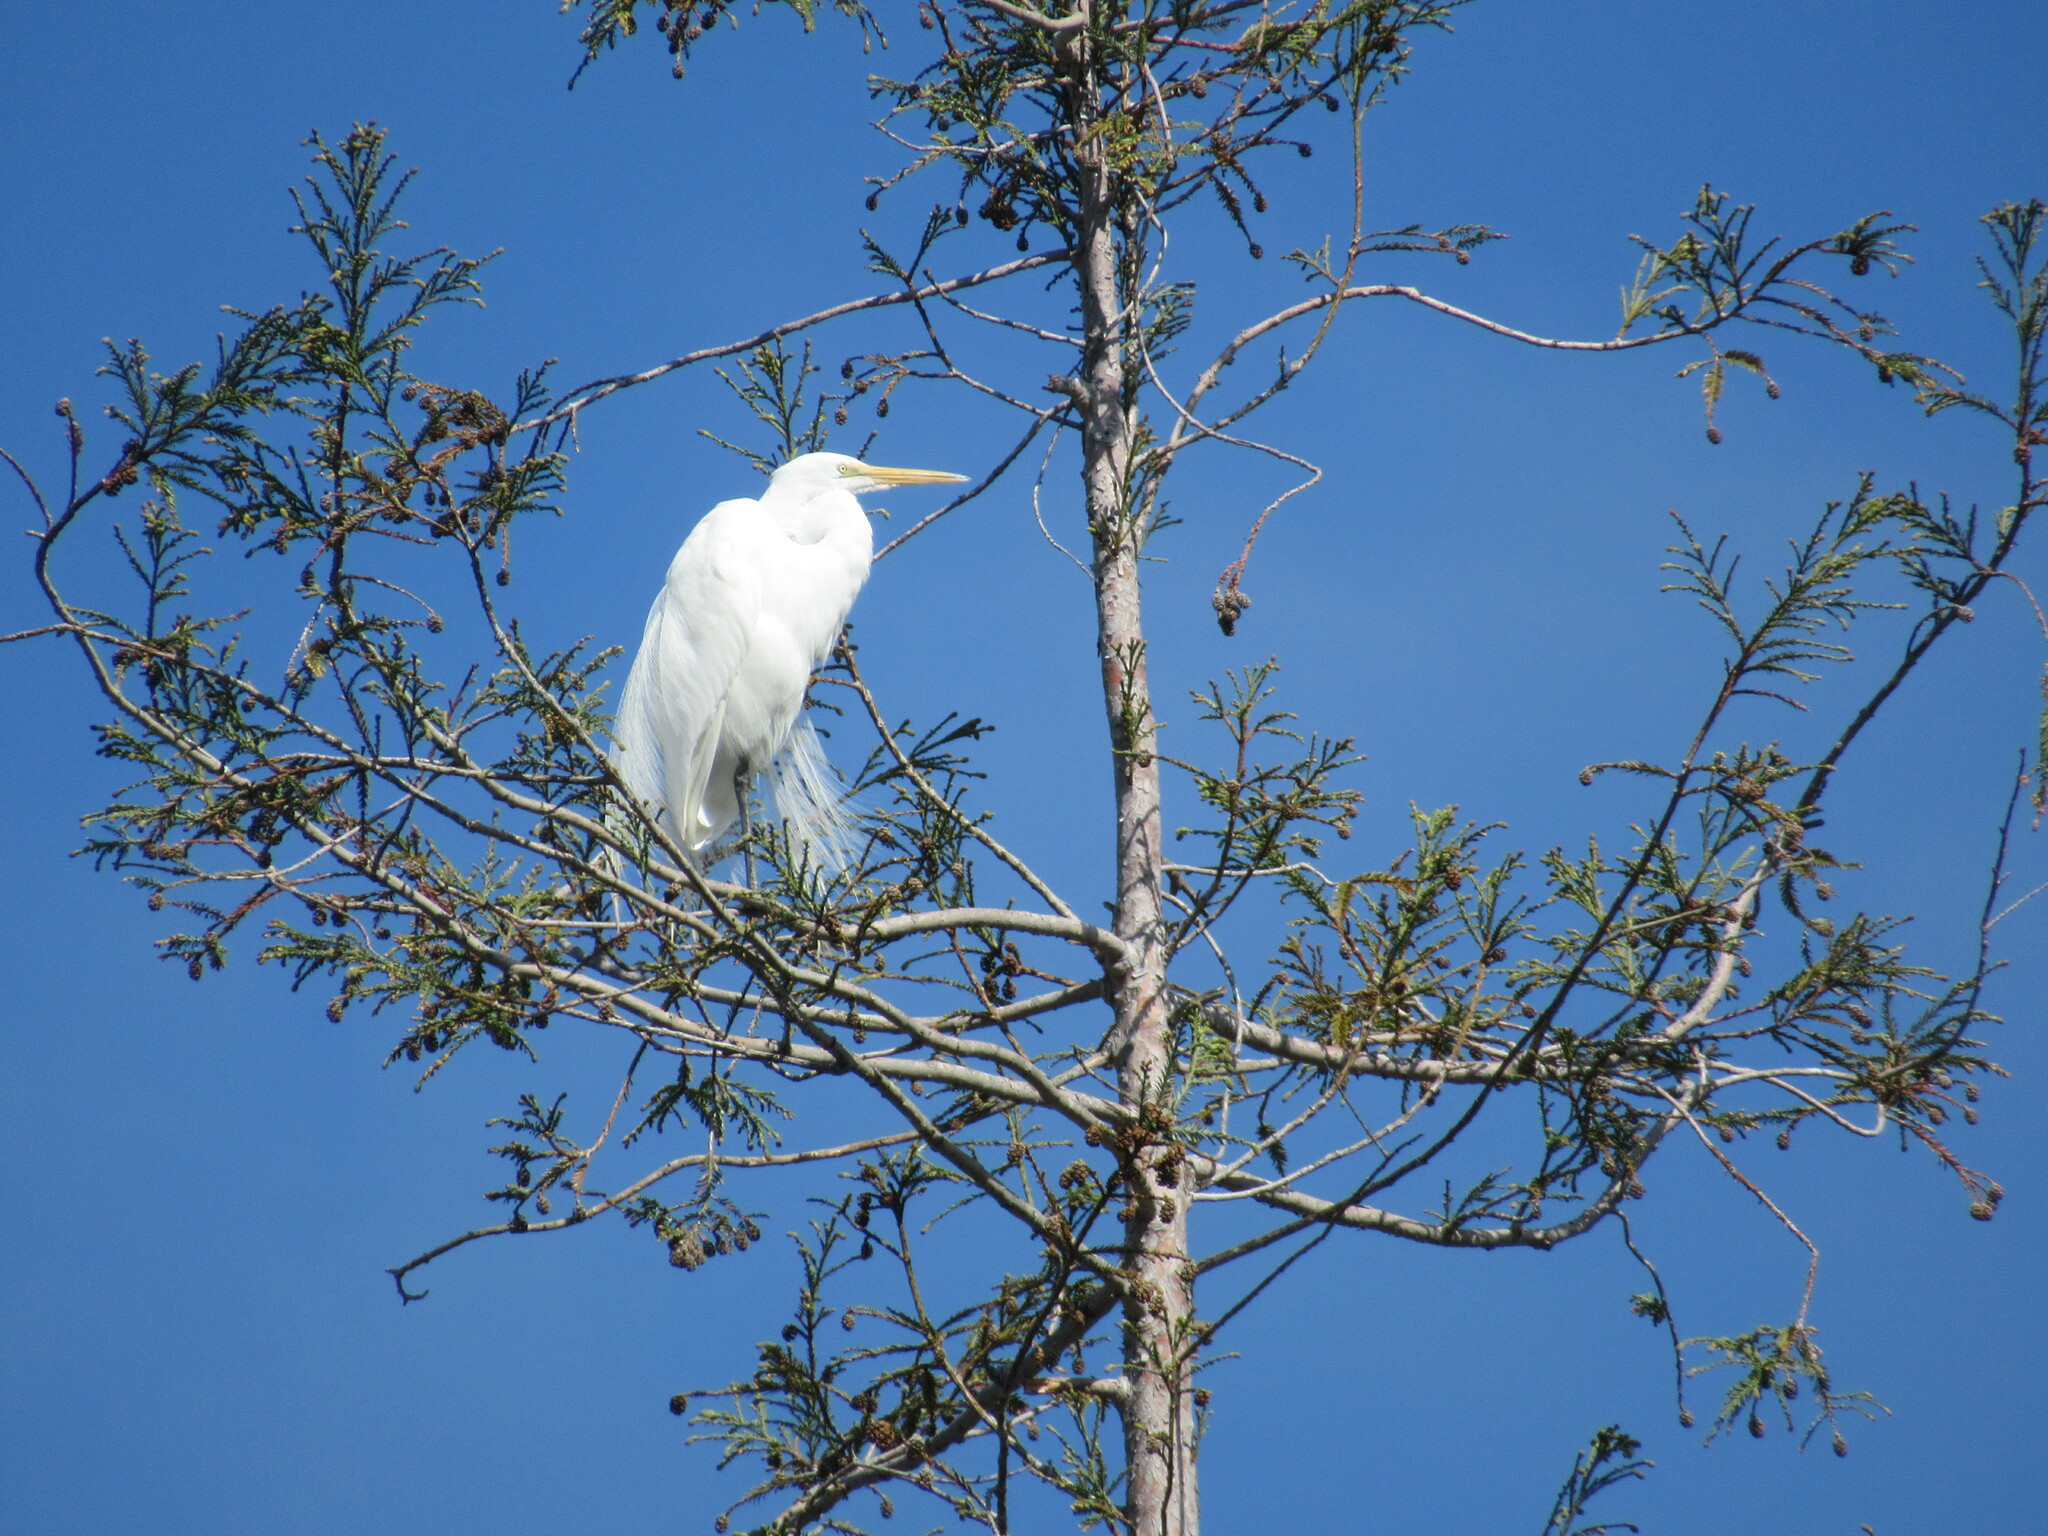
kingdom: Animalia
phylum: Chordata
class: Aves
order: Pelecaniformes
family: Ardeidae
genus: Ardea
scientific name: Ardea alba
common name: Great egret
